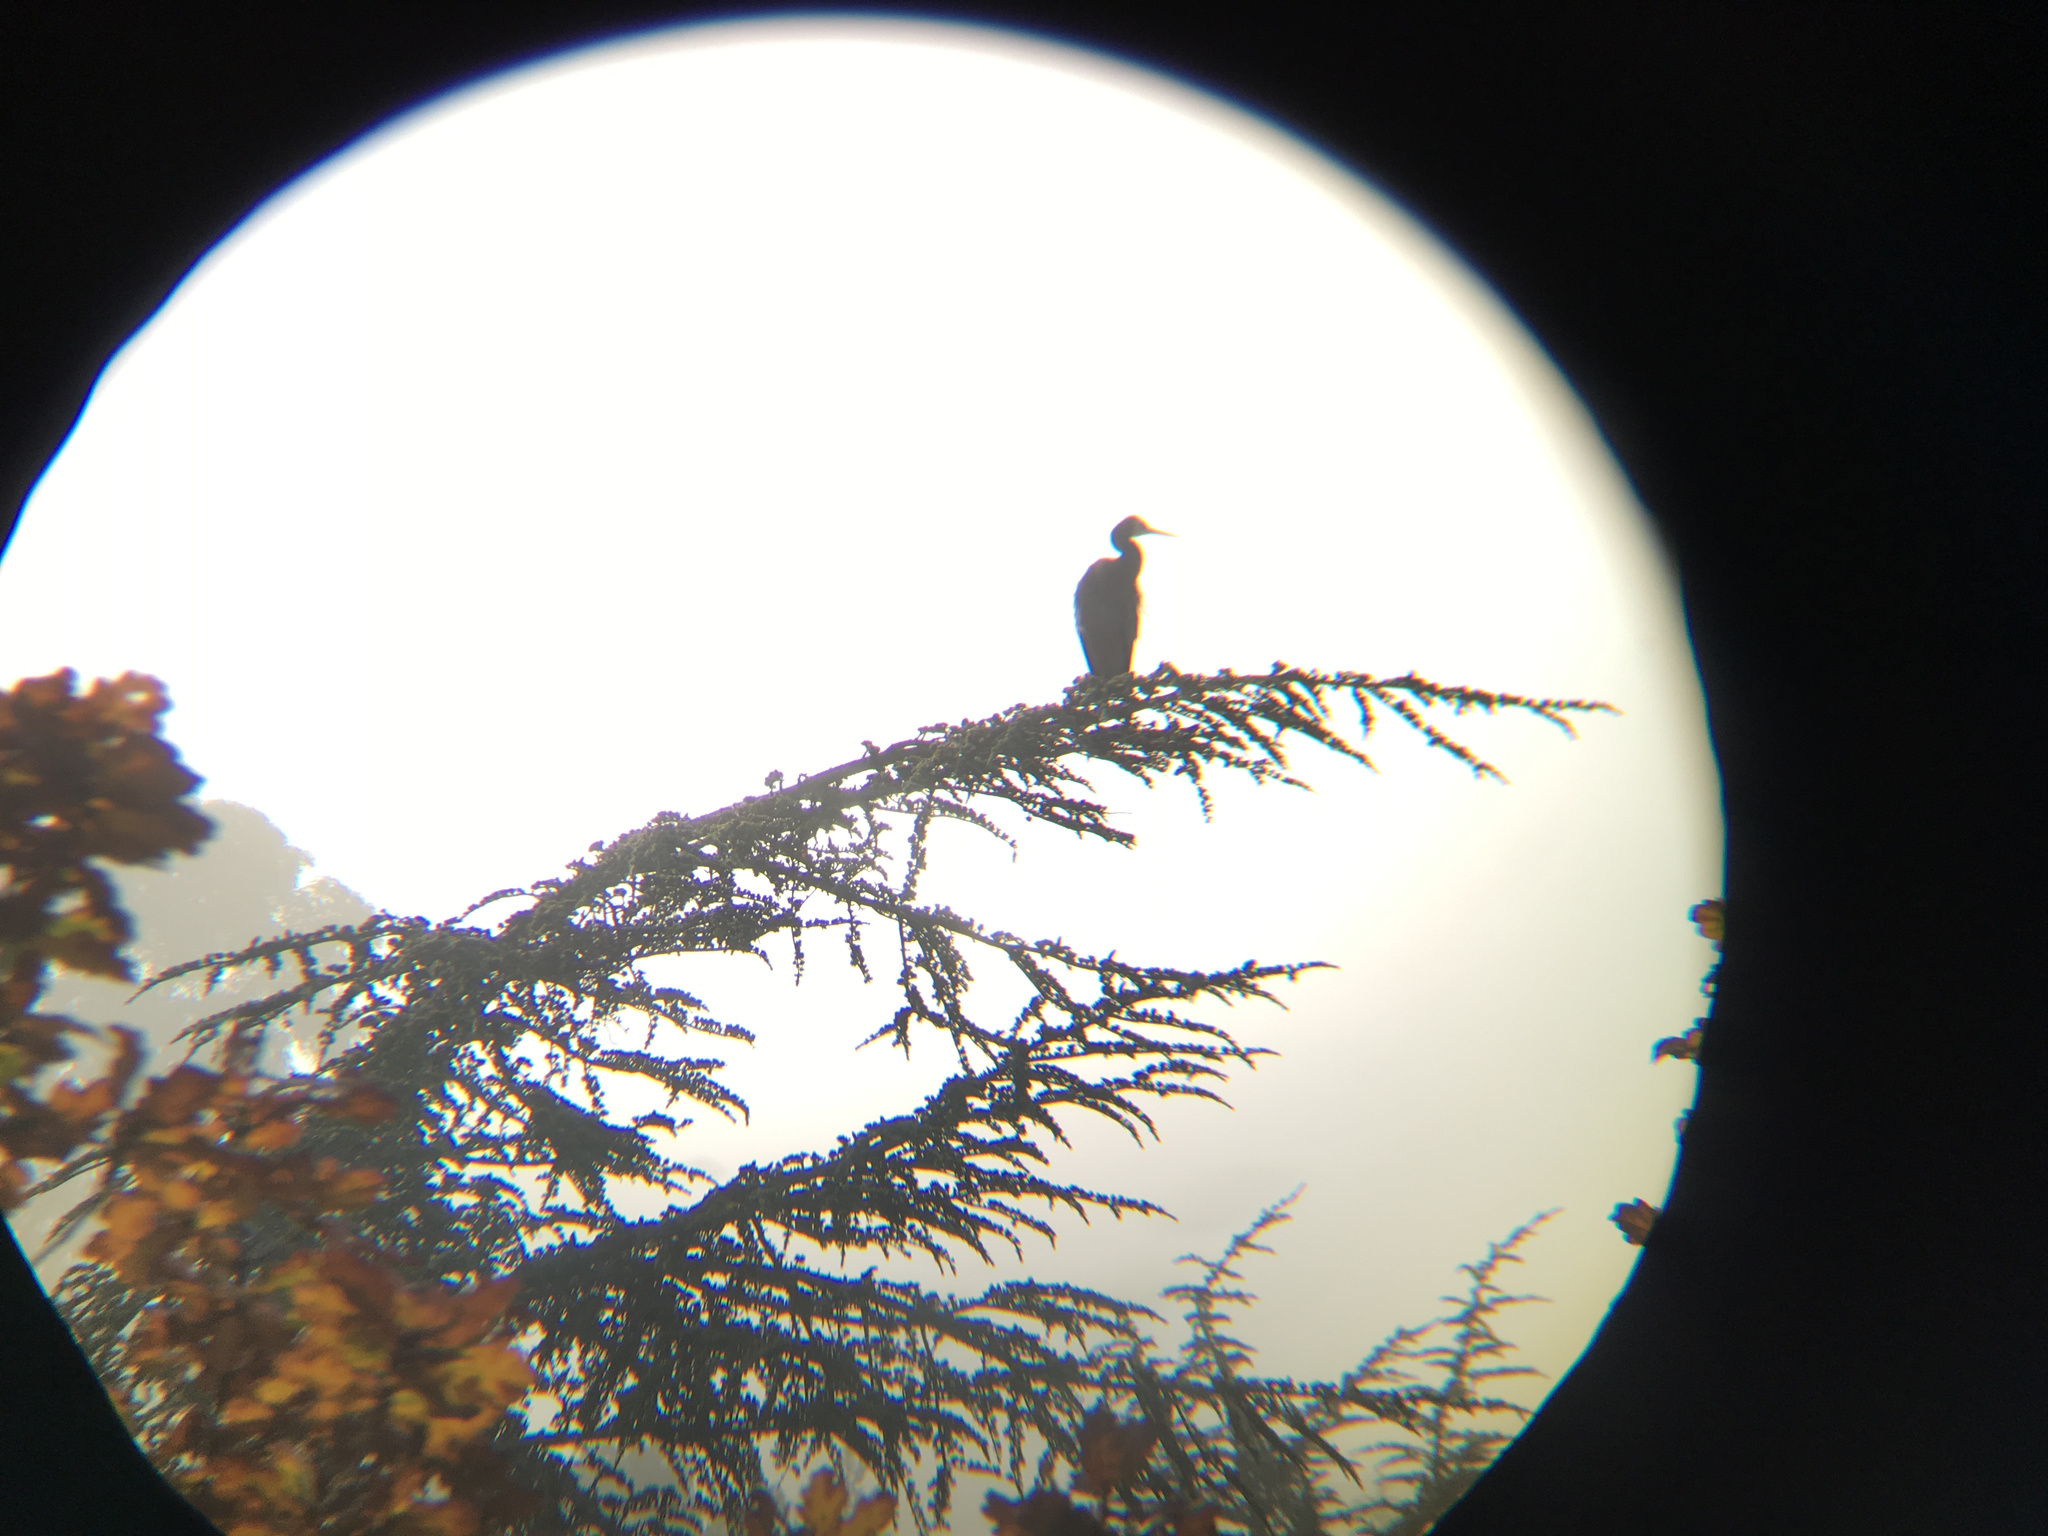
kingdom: Animalia
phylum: Chordata
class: Aves
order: Pelecaniformes
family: Ardeidae
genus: Egretta
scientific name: Egretta novaehollandiae
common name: White-faced heron
